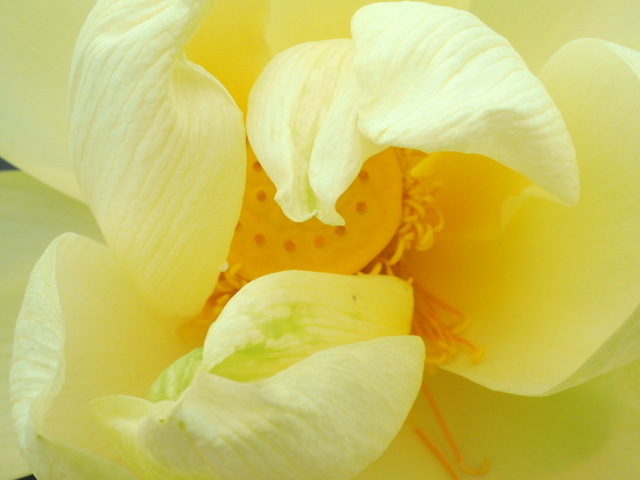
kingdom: Plantae
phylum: Tracheophyta
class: Magnoliopsida
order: Proteales
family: Nelumbonaceae
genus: Nelumbo
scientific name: Nelumbo lutea
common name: American lotus
